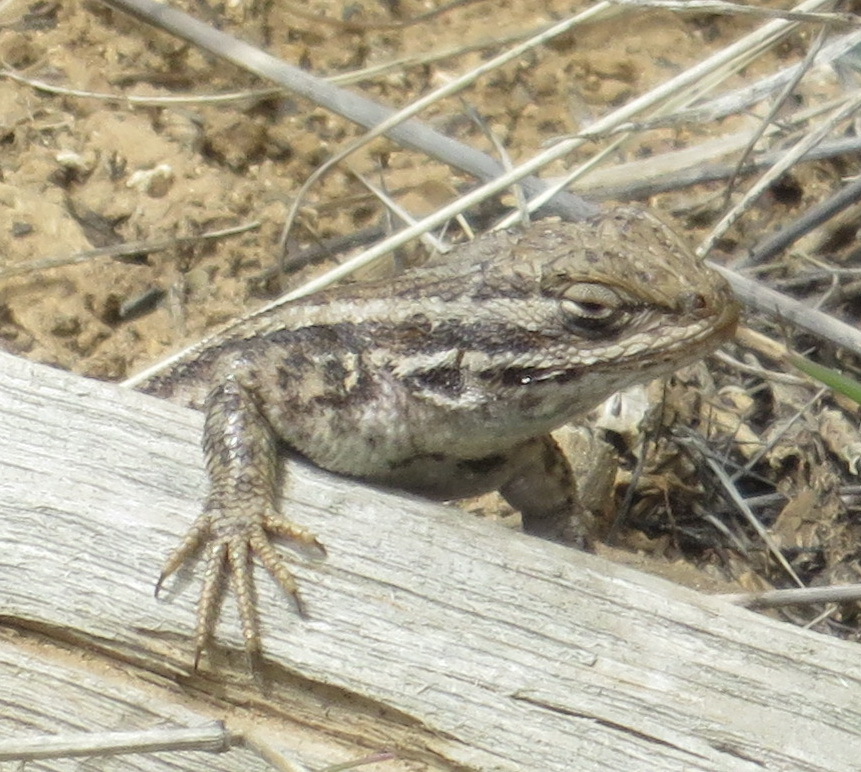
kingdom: Animalia
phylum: Chordata
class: Squamata
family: Phrynosomatidae
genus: Sceloporus
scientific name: Sceloporus graciosus
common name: Sagebrush lizard
